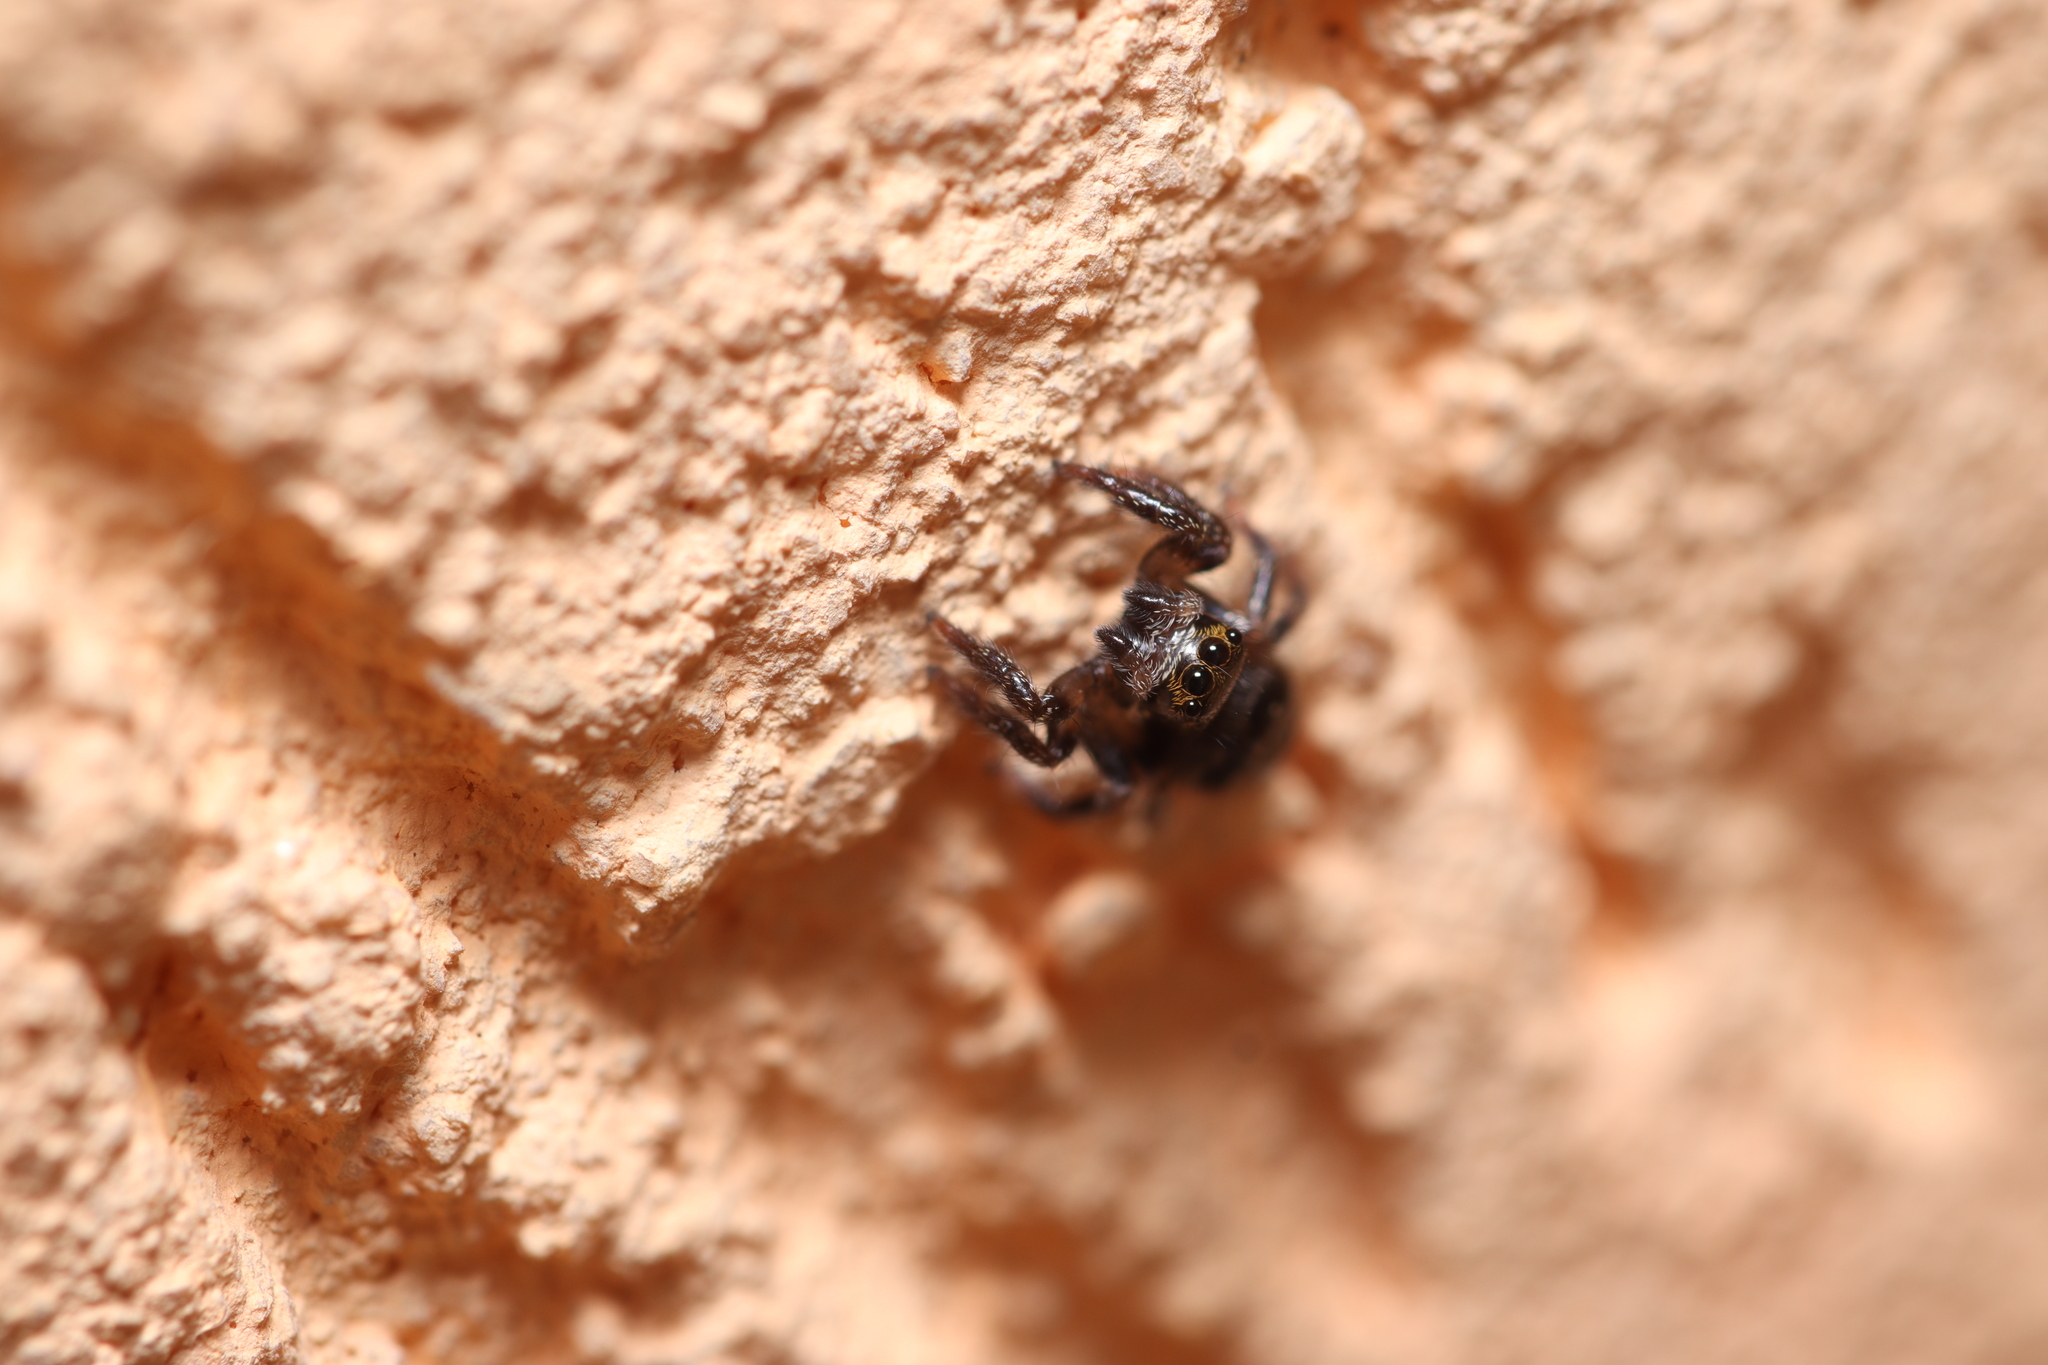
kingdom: Animalia
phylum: Arthropoda
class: Arachnida
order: Araneae
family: Salticidae
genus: Corythalia
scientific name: Corythalia conferta
